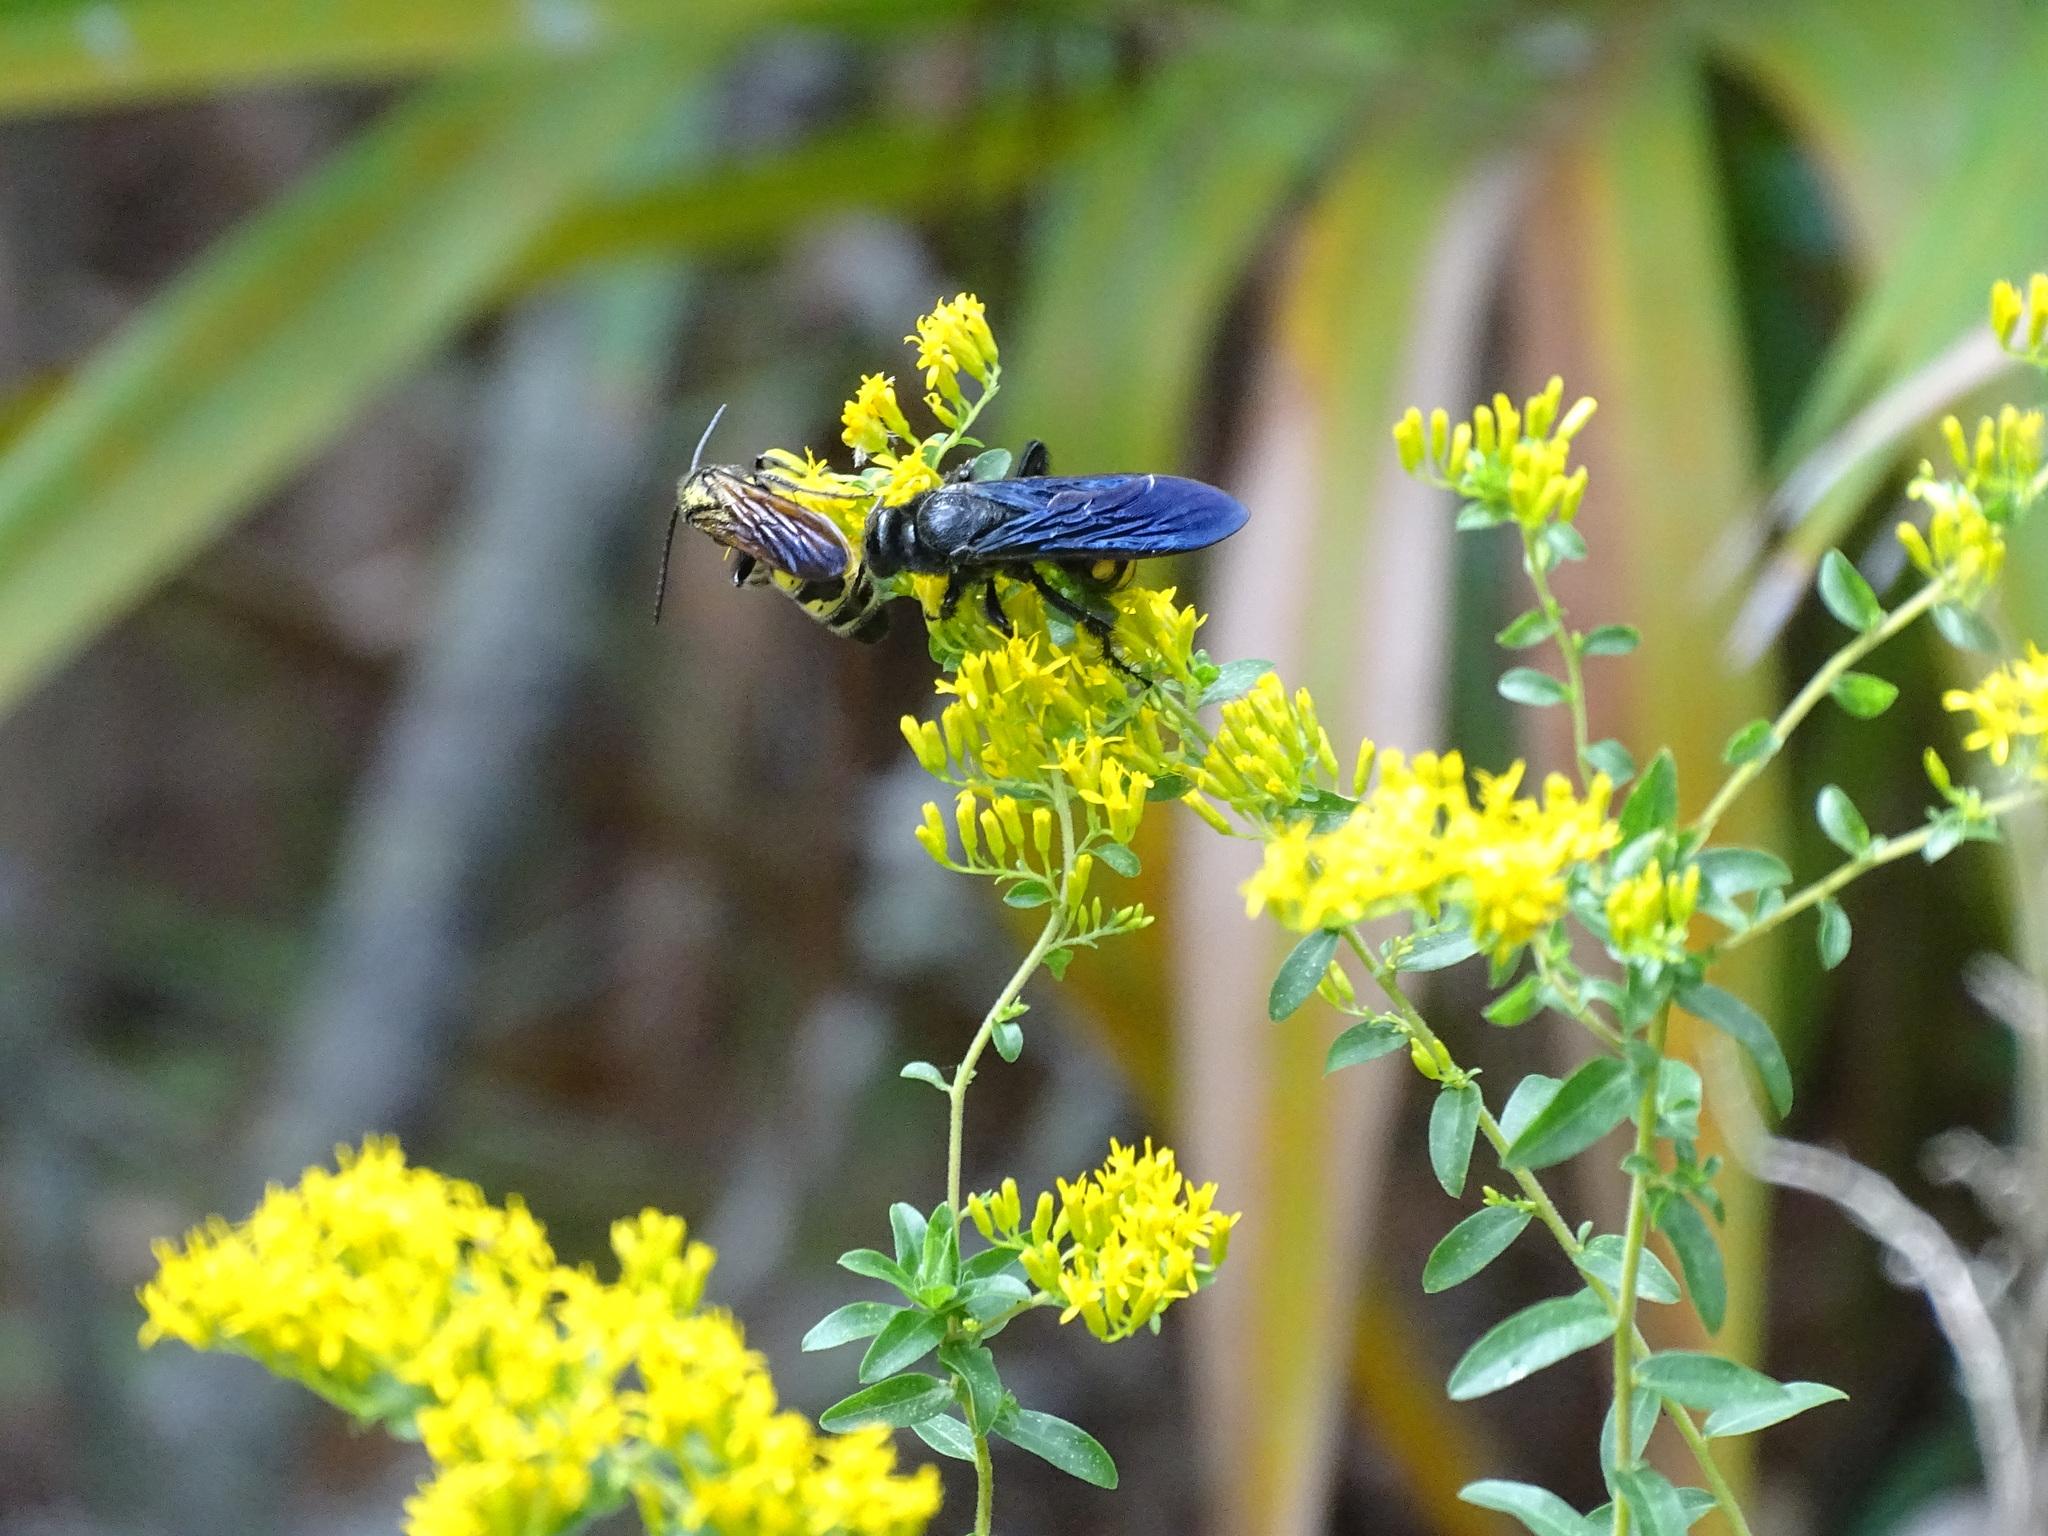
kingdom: Animalia
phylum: Arthropoda
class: Insecta
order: Hymenoptera
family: Scoliidae
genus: Pygodasis
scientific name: Pygodasis
